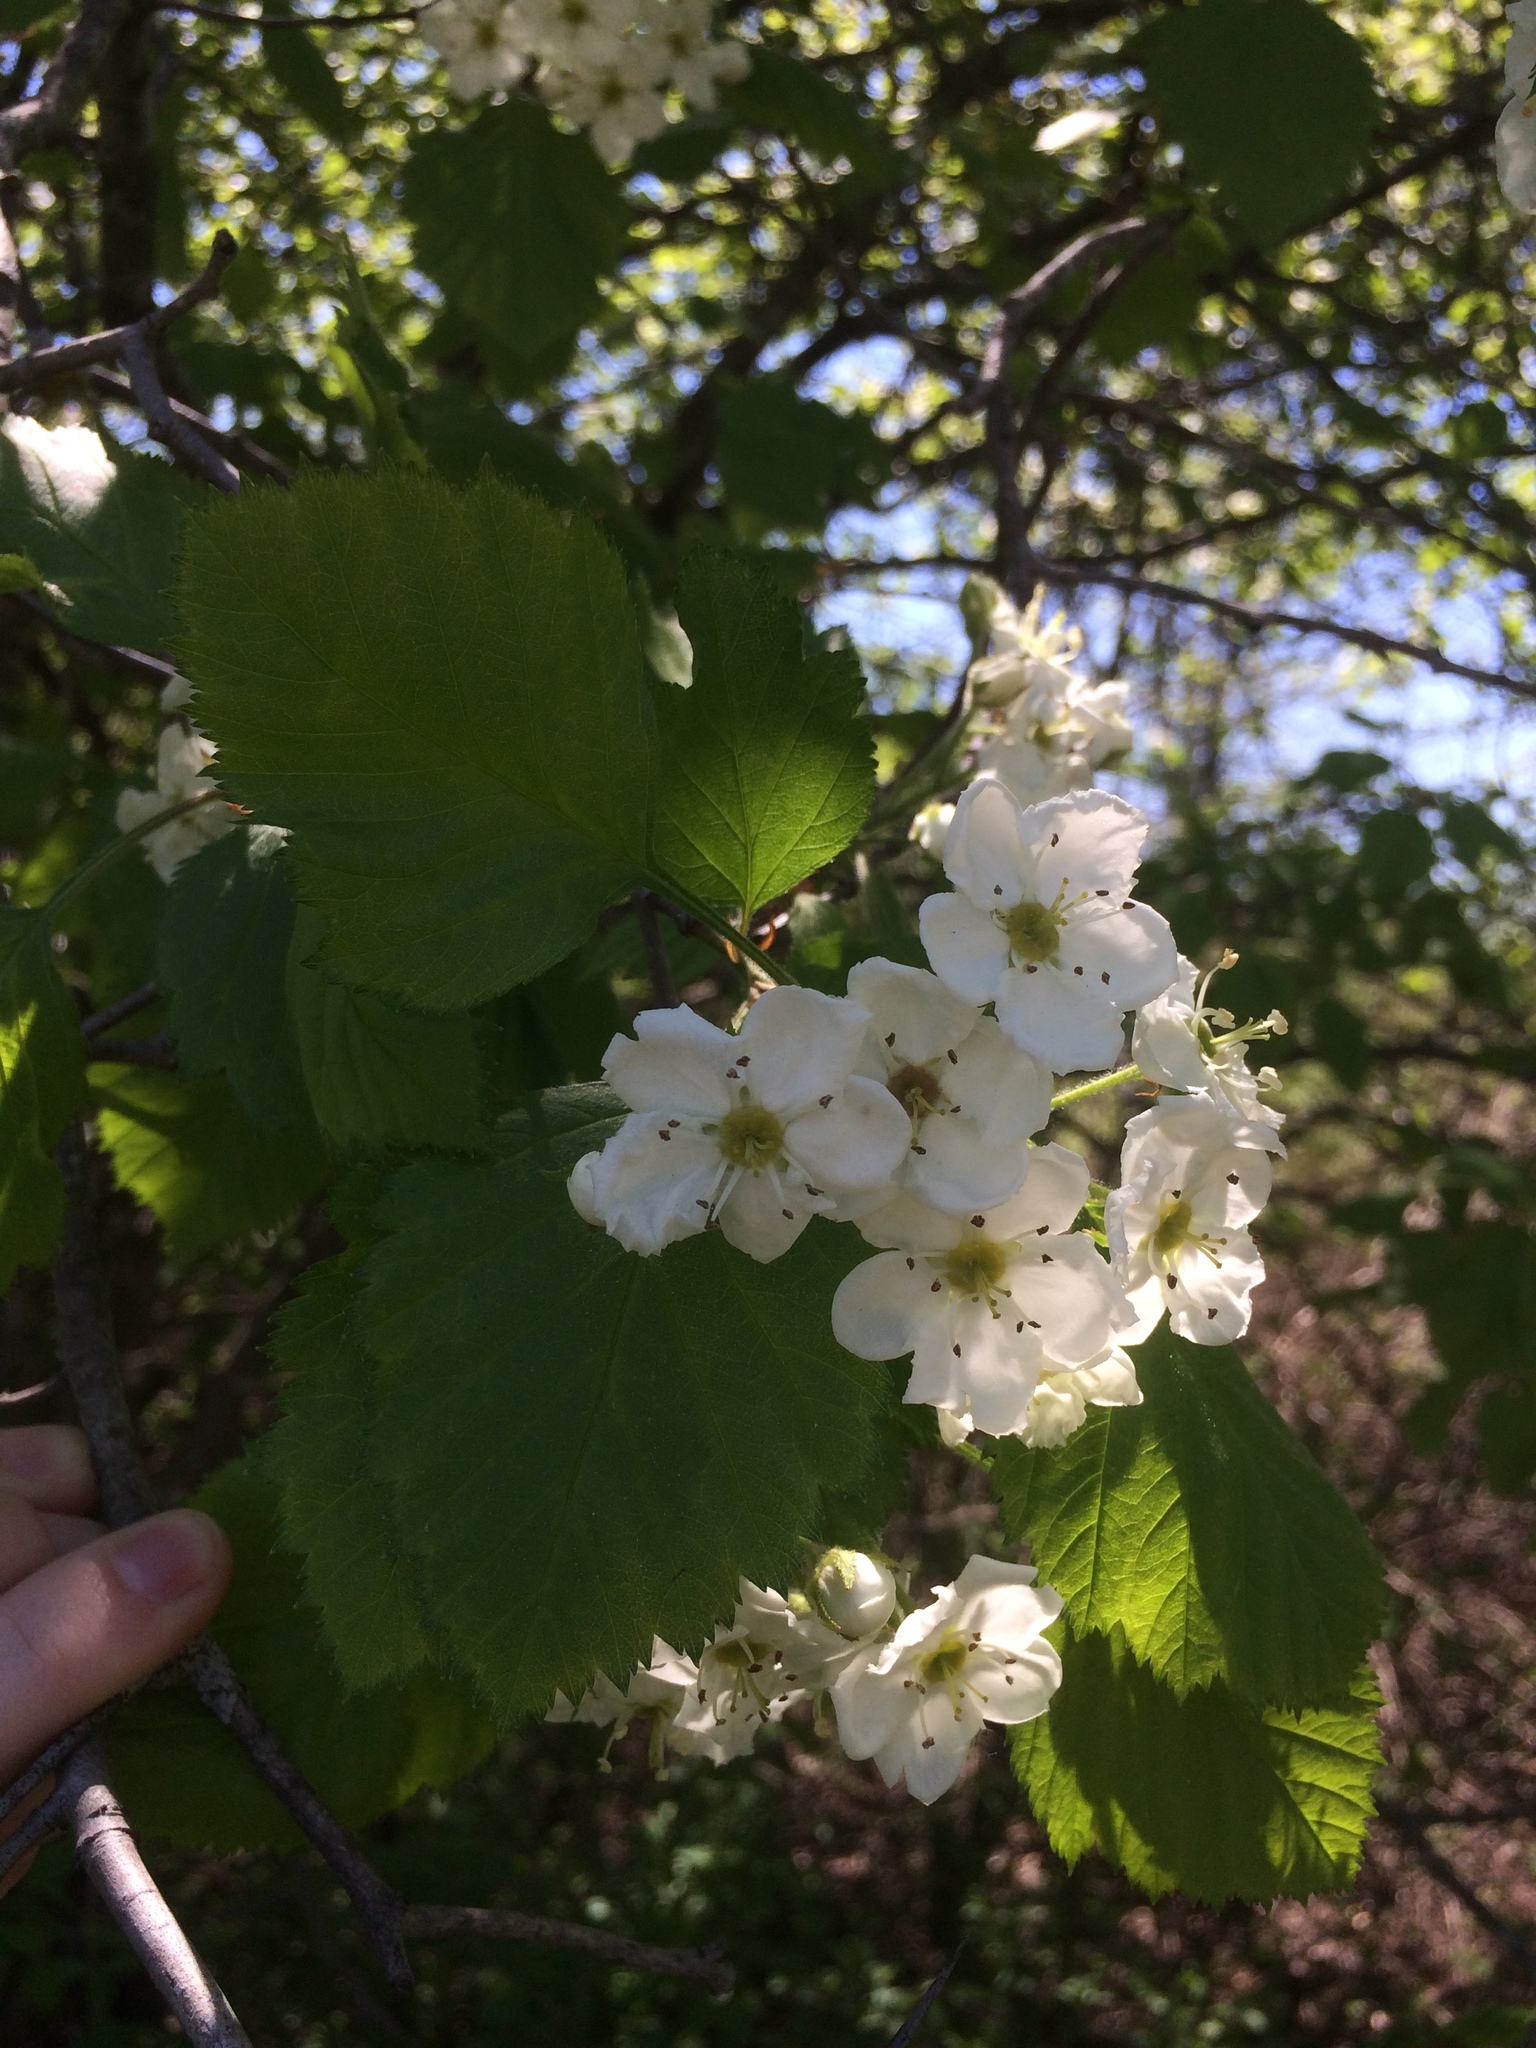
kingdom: Plantae
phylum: Tracheophyta
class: Magnoliopsida
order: Rosales
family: Rosaceae
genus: Crataegus
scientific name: Crataegus submollis
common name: Hairy cockspurthorn
